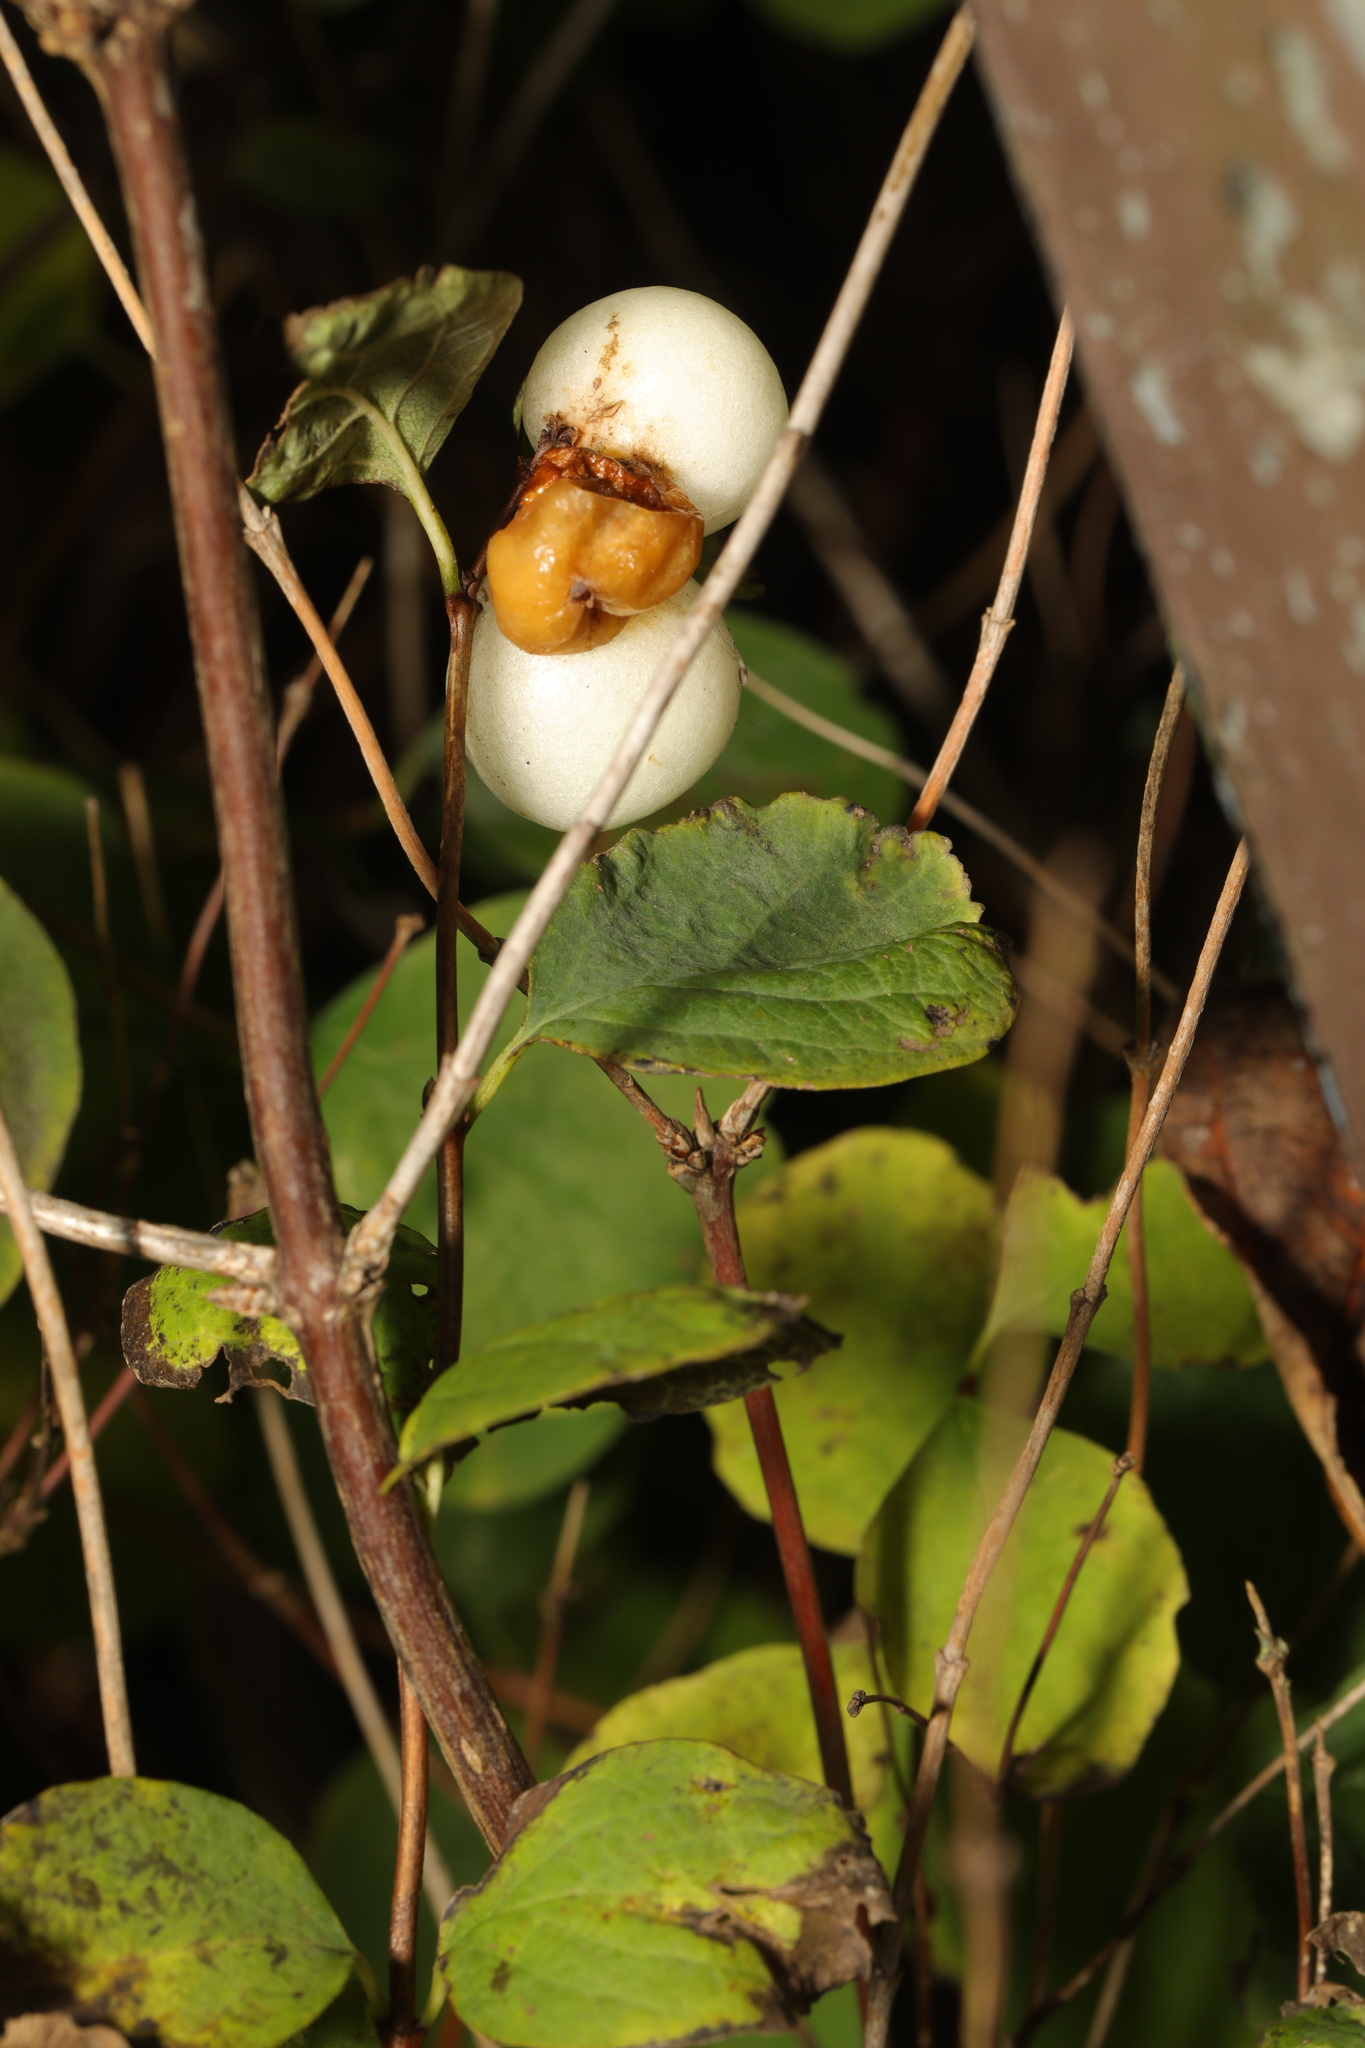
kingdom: Plantae
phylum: Tracheophyta
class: Magnoliopsida
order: Dipsacales
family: Caprifoliaceae
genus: Symphoricarpos
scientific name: Symphoricarpos albus
